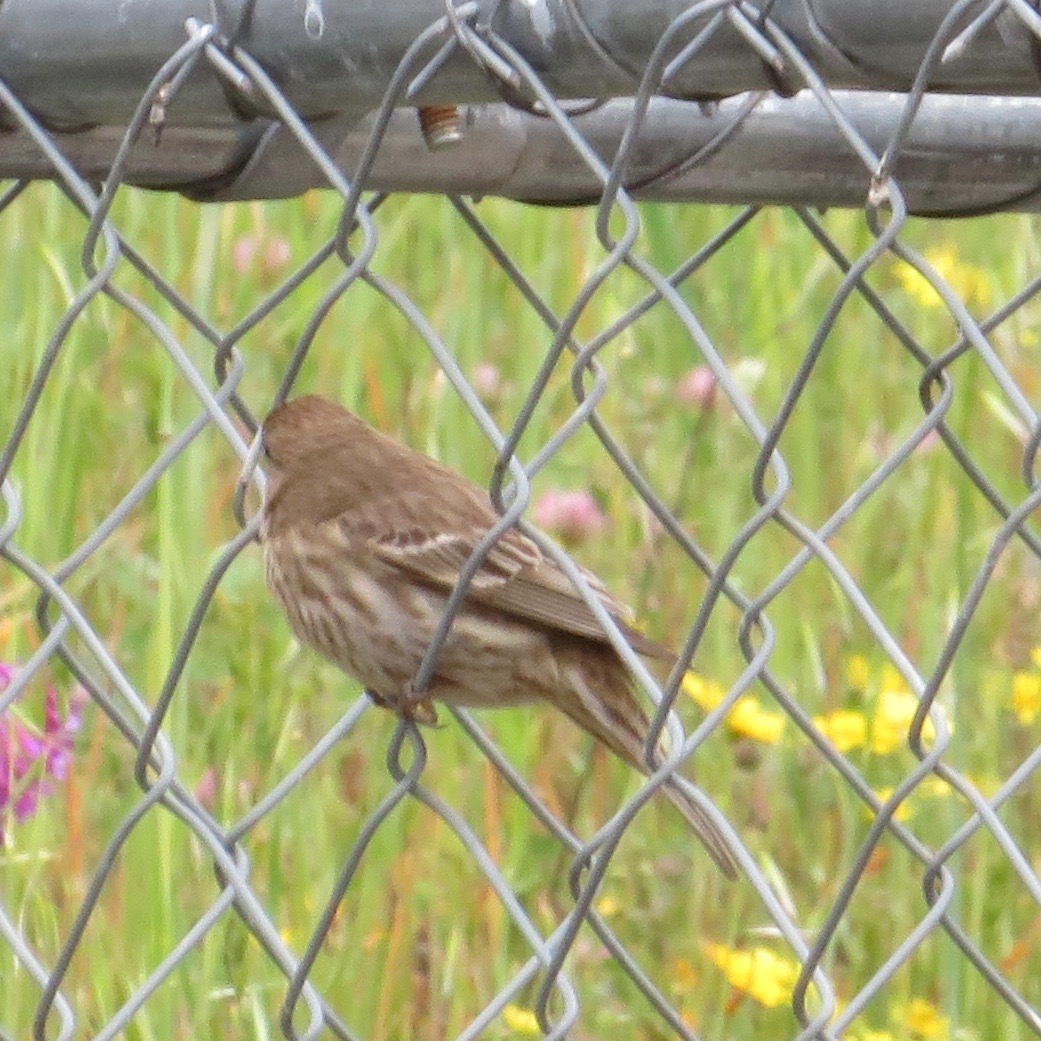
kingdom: Animalia
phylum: Chordata
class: Aves
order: Passeriformes
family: Fringillidae
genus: Haemorhous
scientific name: Haemorhous mexicanus
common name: House finch
